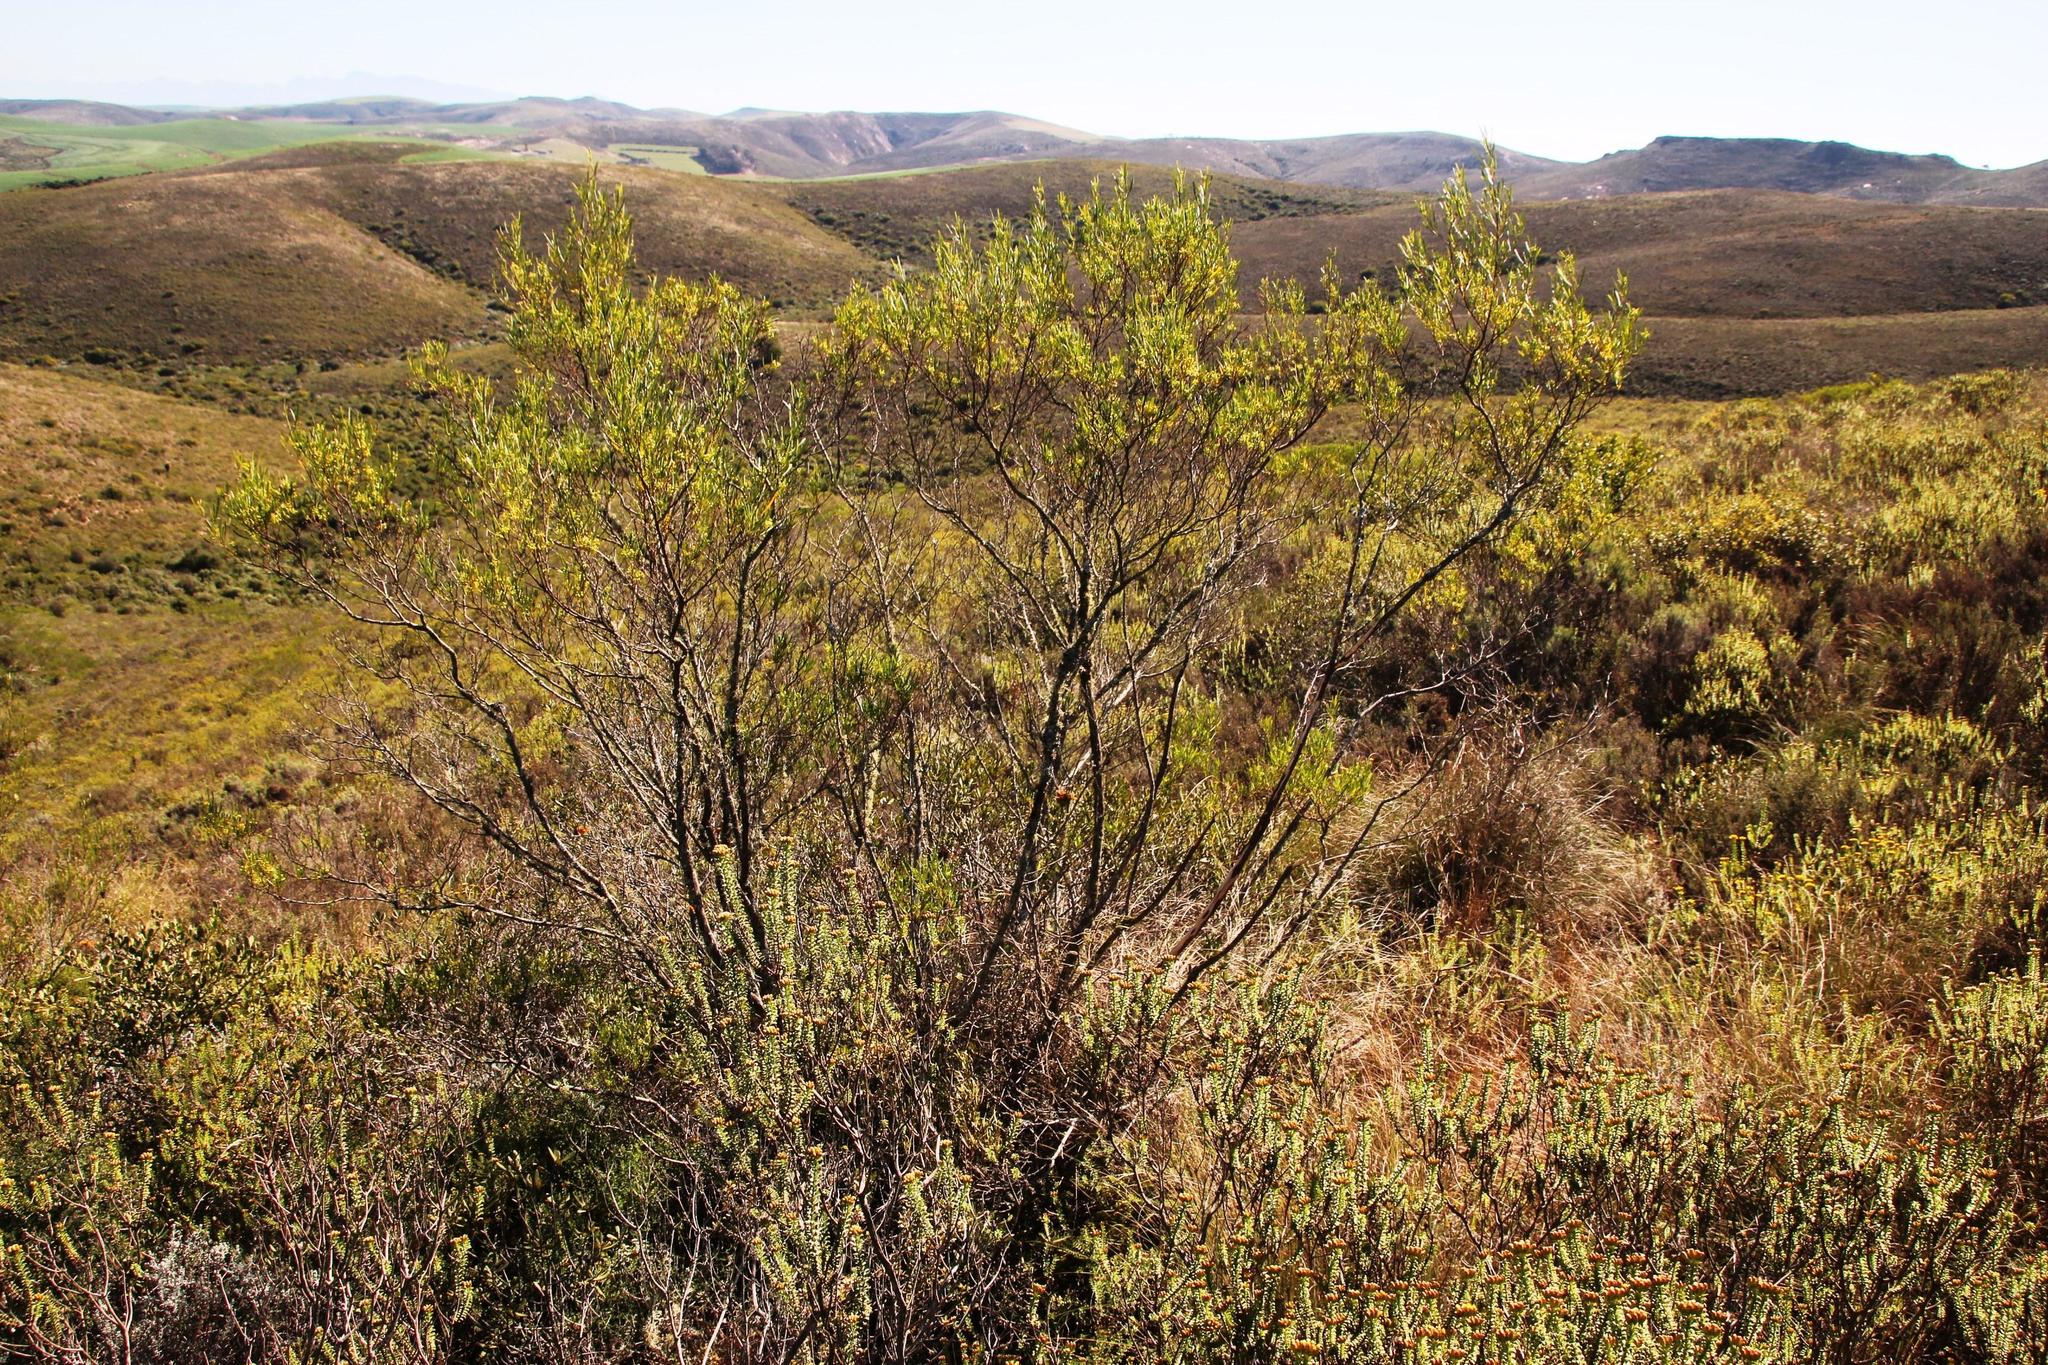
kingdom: Plantae
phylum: Tracheophyta
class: Magnoliopsida
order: Sapindales
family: Sapindaceae
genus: Dodonaea
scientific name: Dodonaea viscosa
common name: Hopbush
